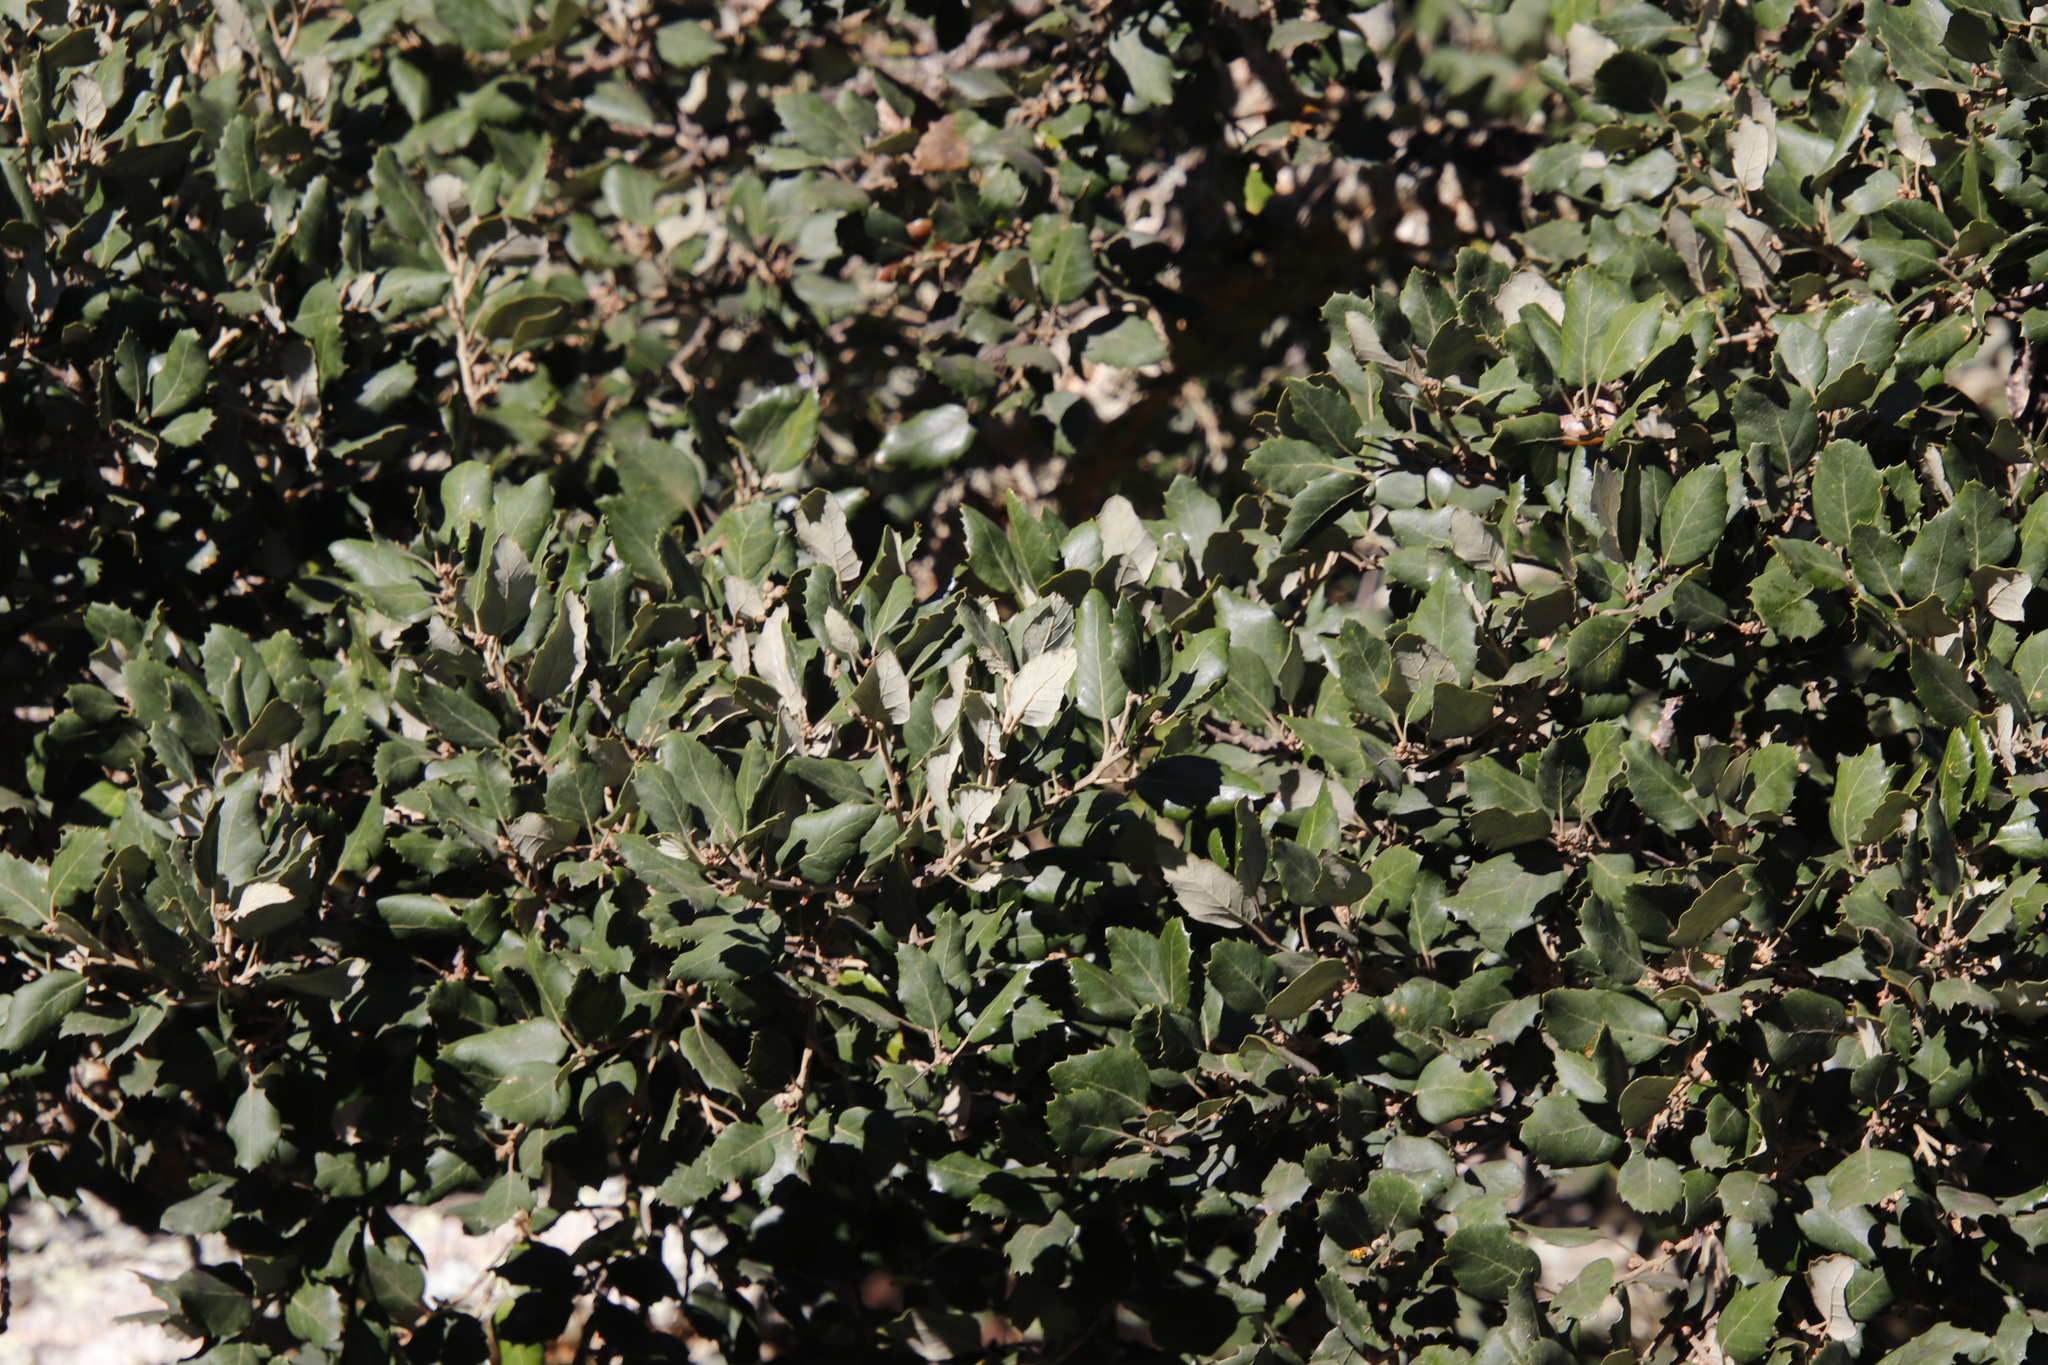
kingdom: Plantae
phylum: Tracheophyta
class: Magnoliopsida
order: Fagales
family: Fagaceae
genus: Quercus
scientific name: Quercus suber
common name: Cork oak
